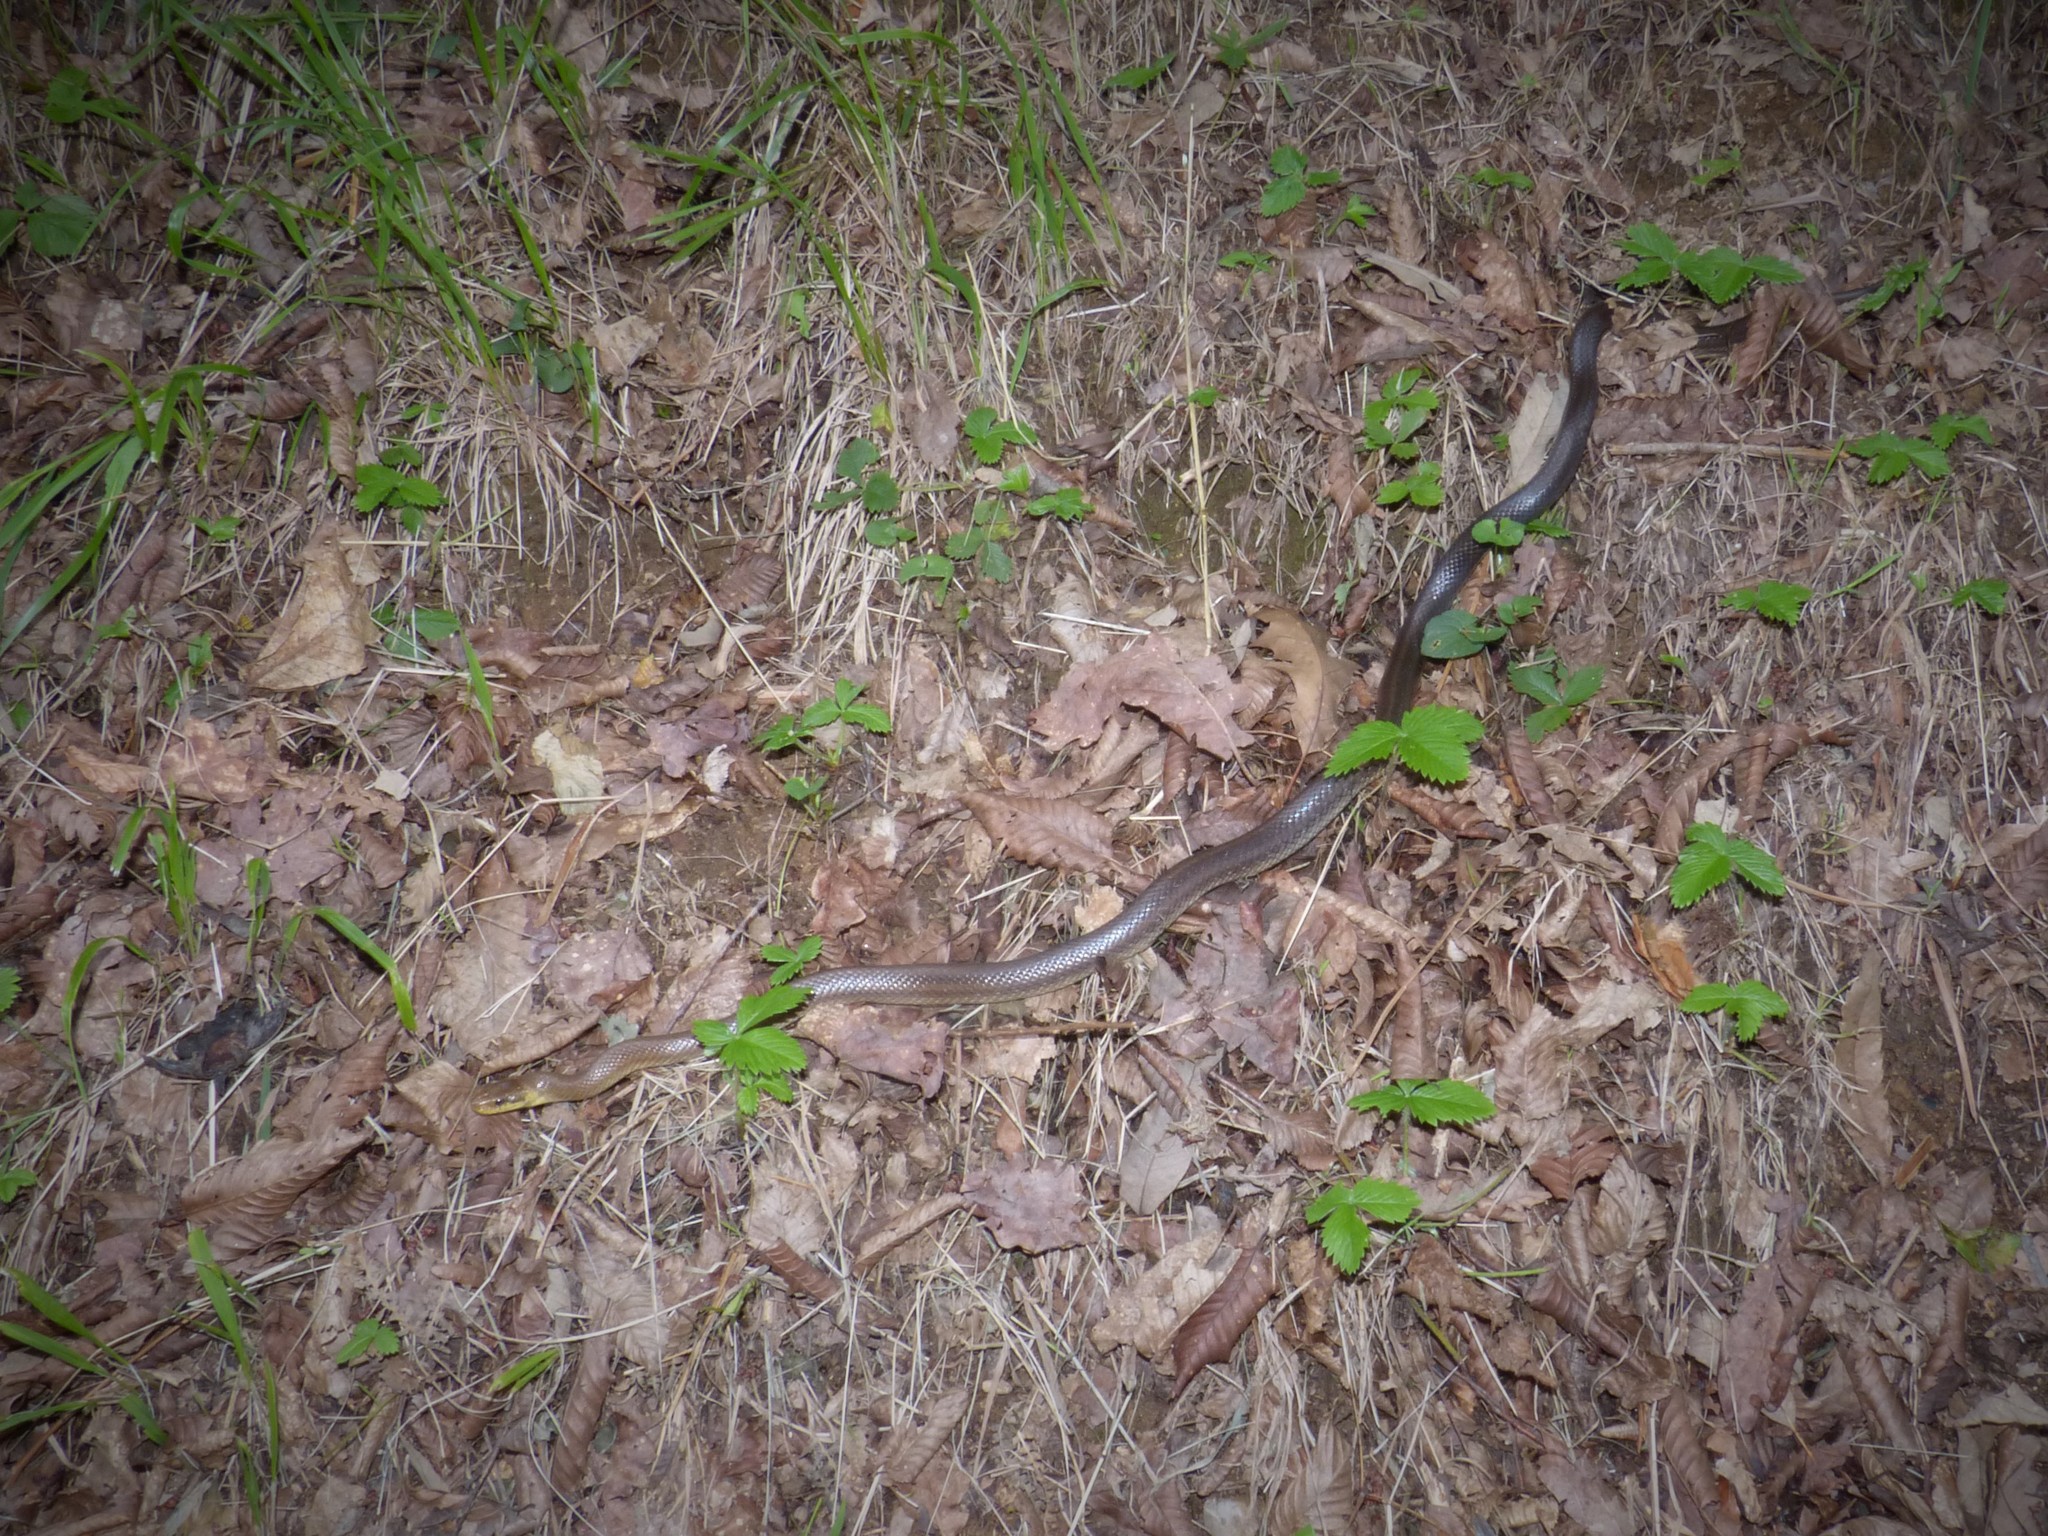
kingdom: Animalia
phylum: Chordata
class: Squamata
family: Colubridae
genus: Zamenis
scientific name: Zamenis longissimus
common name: Aesculapean snake
